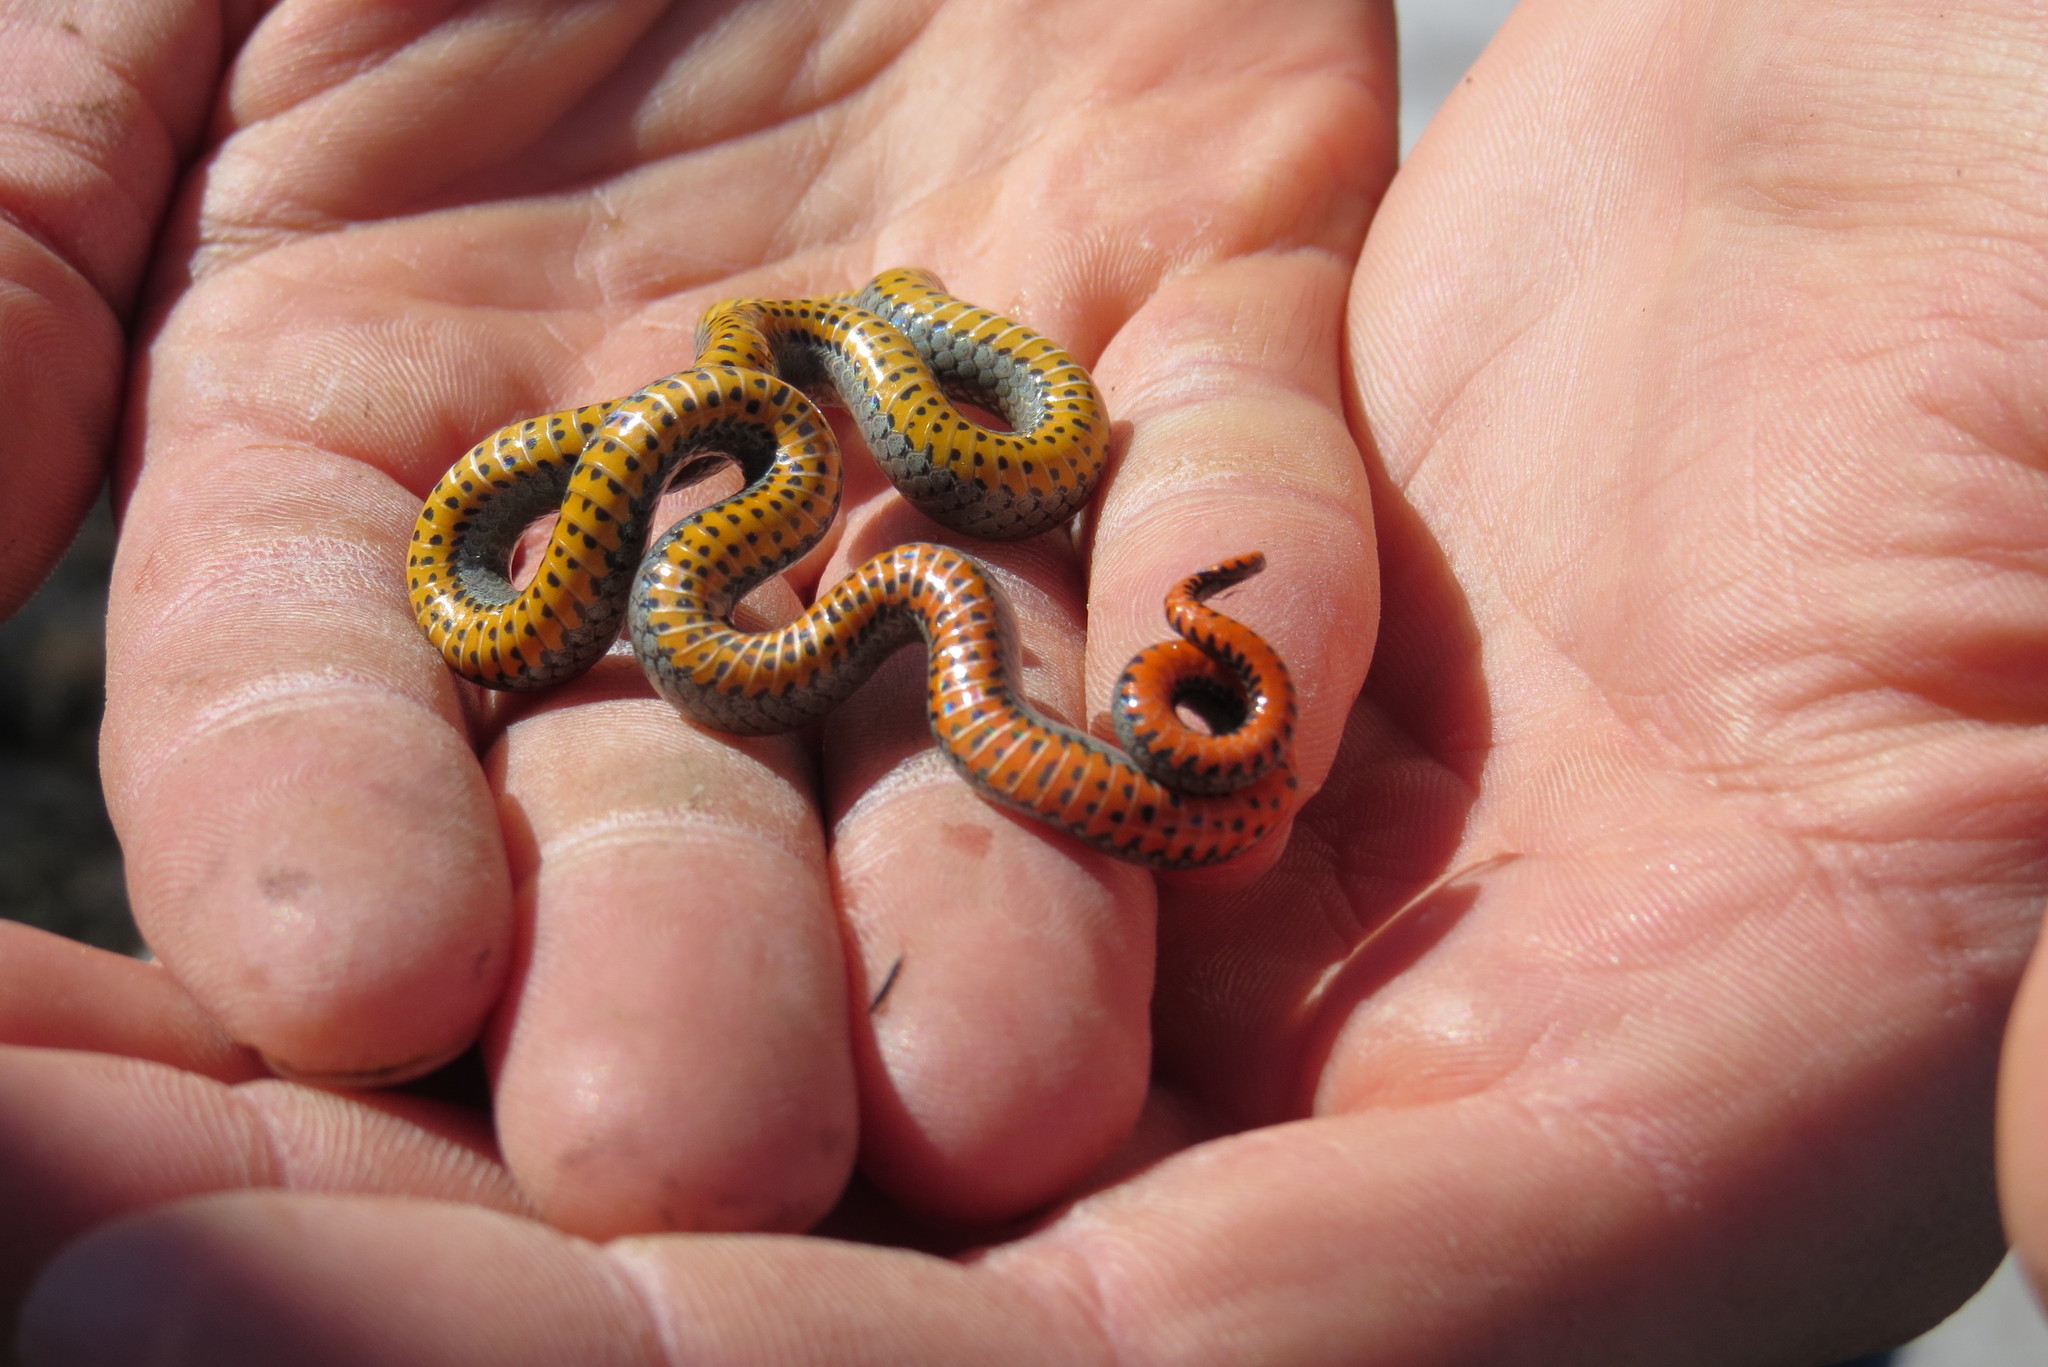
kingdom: Animalia
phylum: Chordata
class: Squamata
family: Colubridae
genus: Diadophis
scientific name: Diadophis punctatus
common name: Ringneck snake
